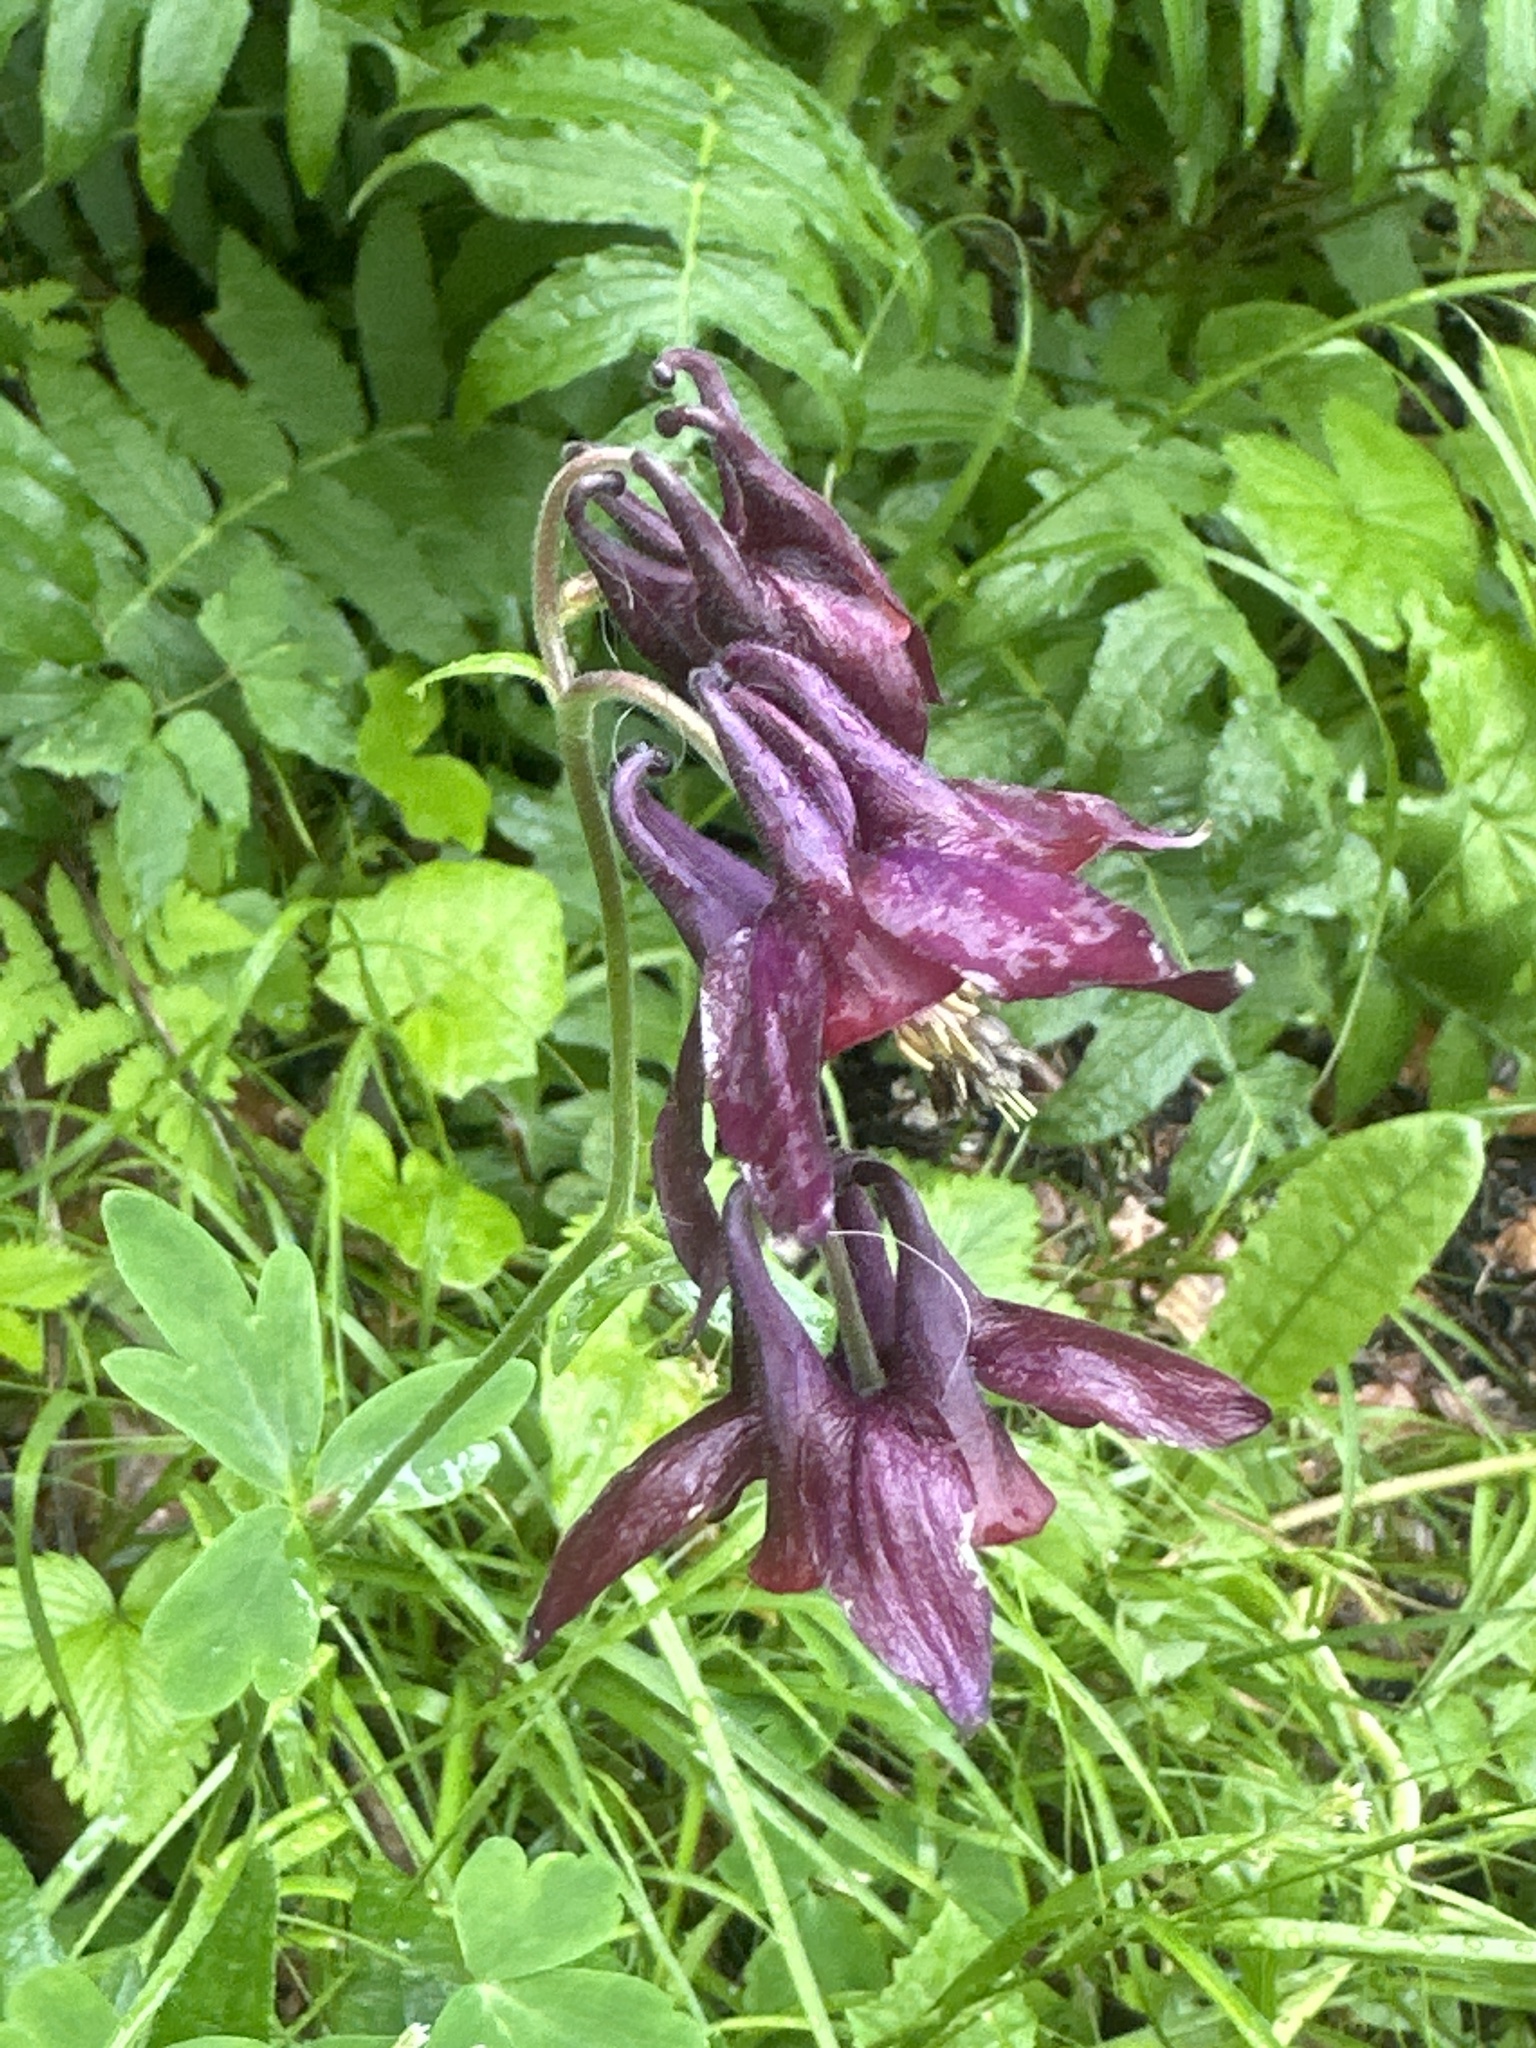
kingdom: Plantae
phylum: Tracheophyta
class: Magnoliopsida
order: Ranunculales
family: Ranunculaceae
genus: Aquilegia
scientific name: Aquilegia atrata
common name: Dark columbine
